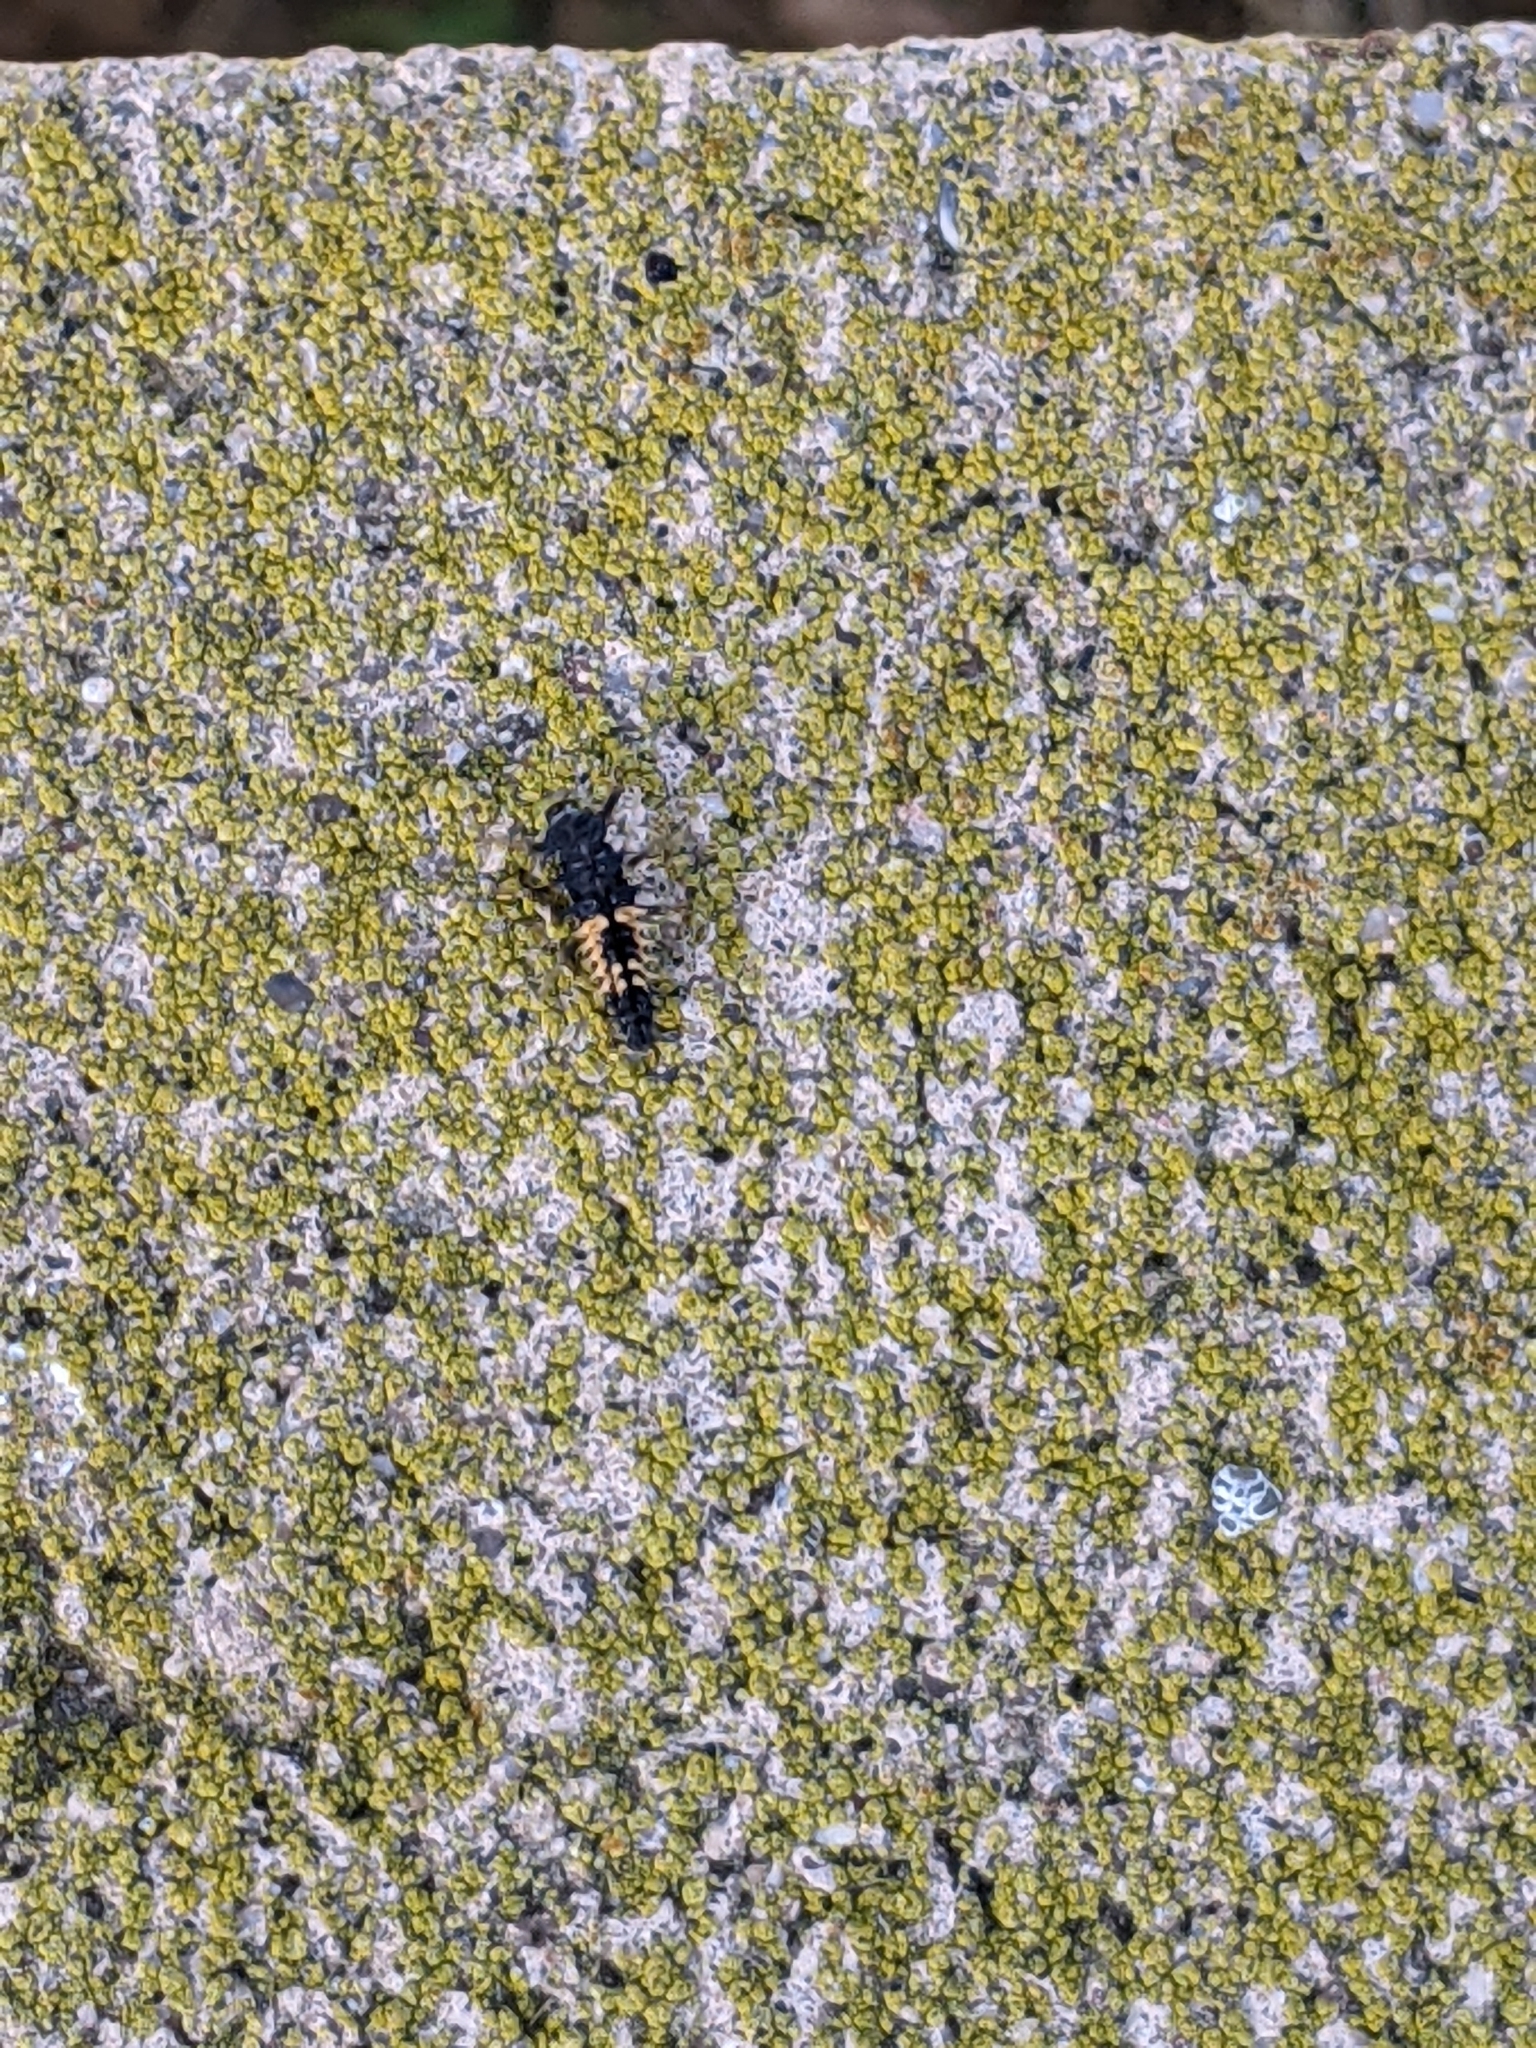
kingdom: Animalia
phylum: Arthropoda
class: Insecta
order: Coleoptera
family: Coccinellidae
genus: Harmonia
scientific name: Harmonia axyridis
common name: Harlequin ladybird
